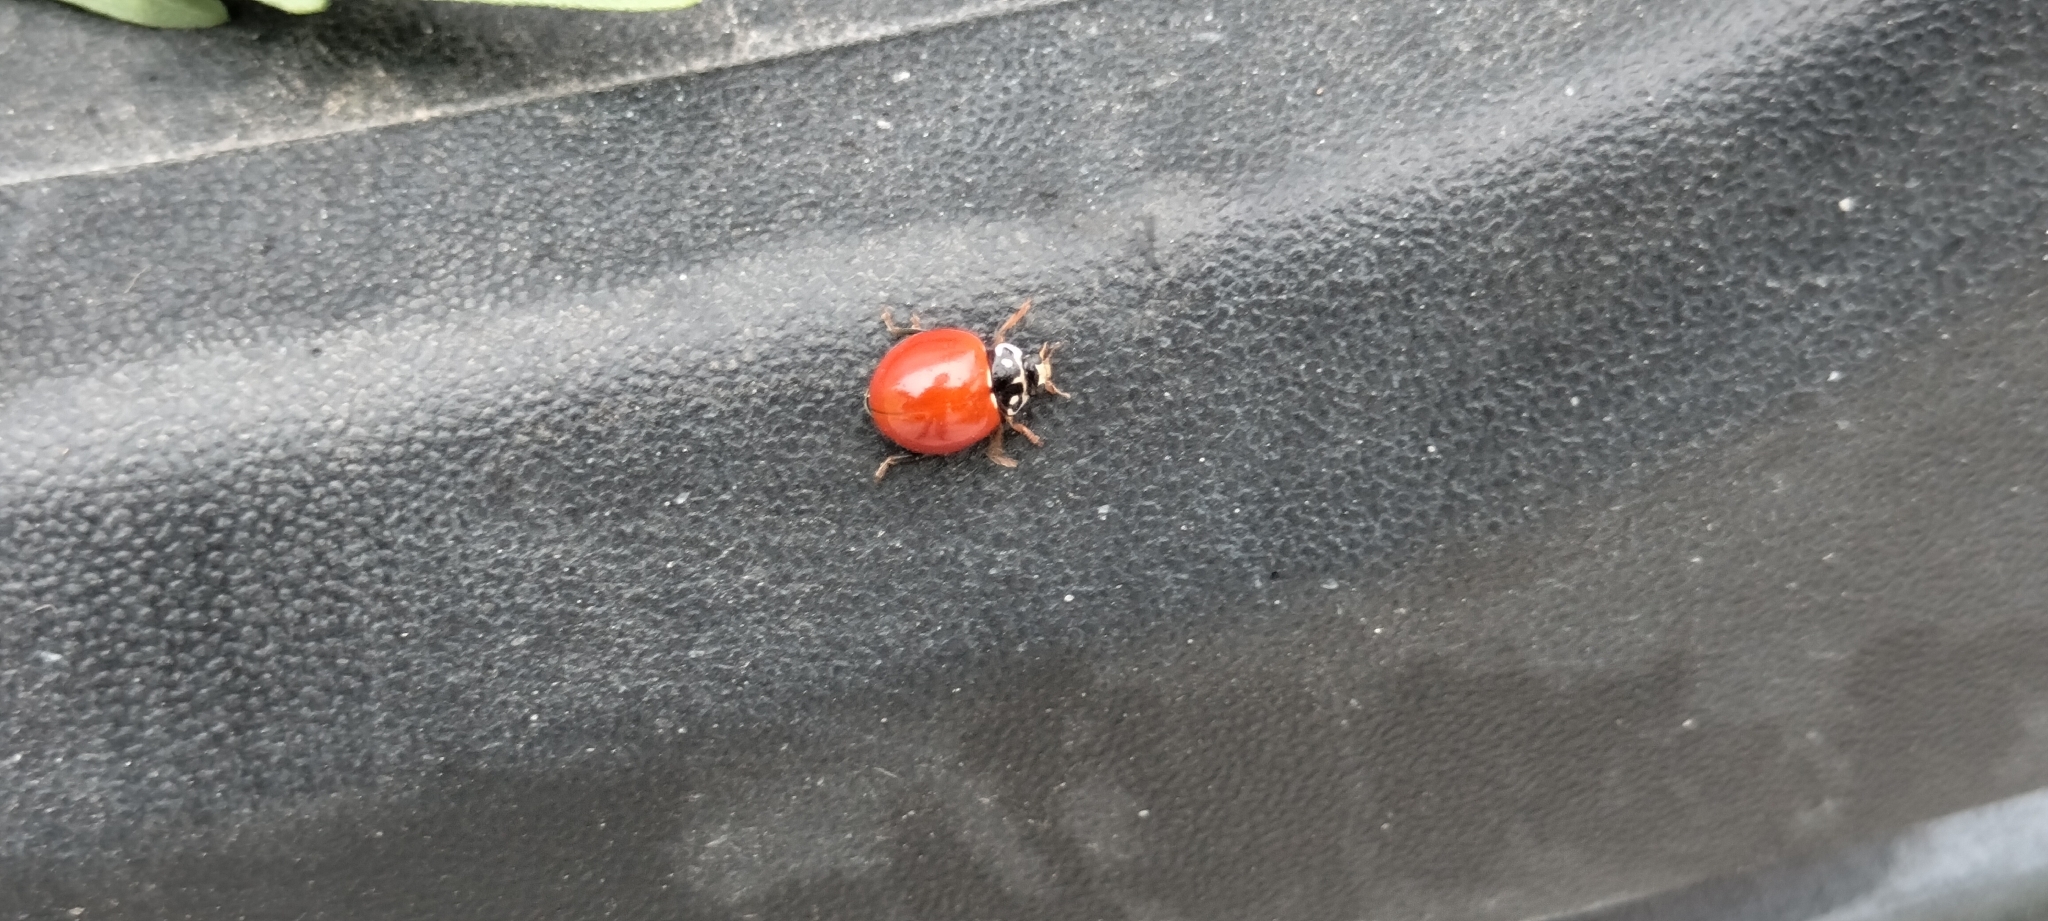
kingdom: Animalia
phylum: Arthropoda
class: Insecta
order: Coleoptera
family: Coccinellidae
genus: Cycloneda
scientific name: Cycloneda sanguinea
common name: Ladybird beetle
